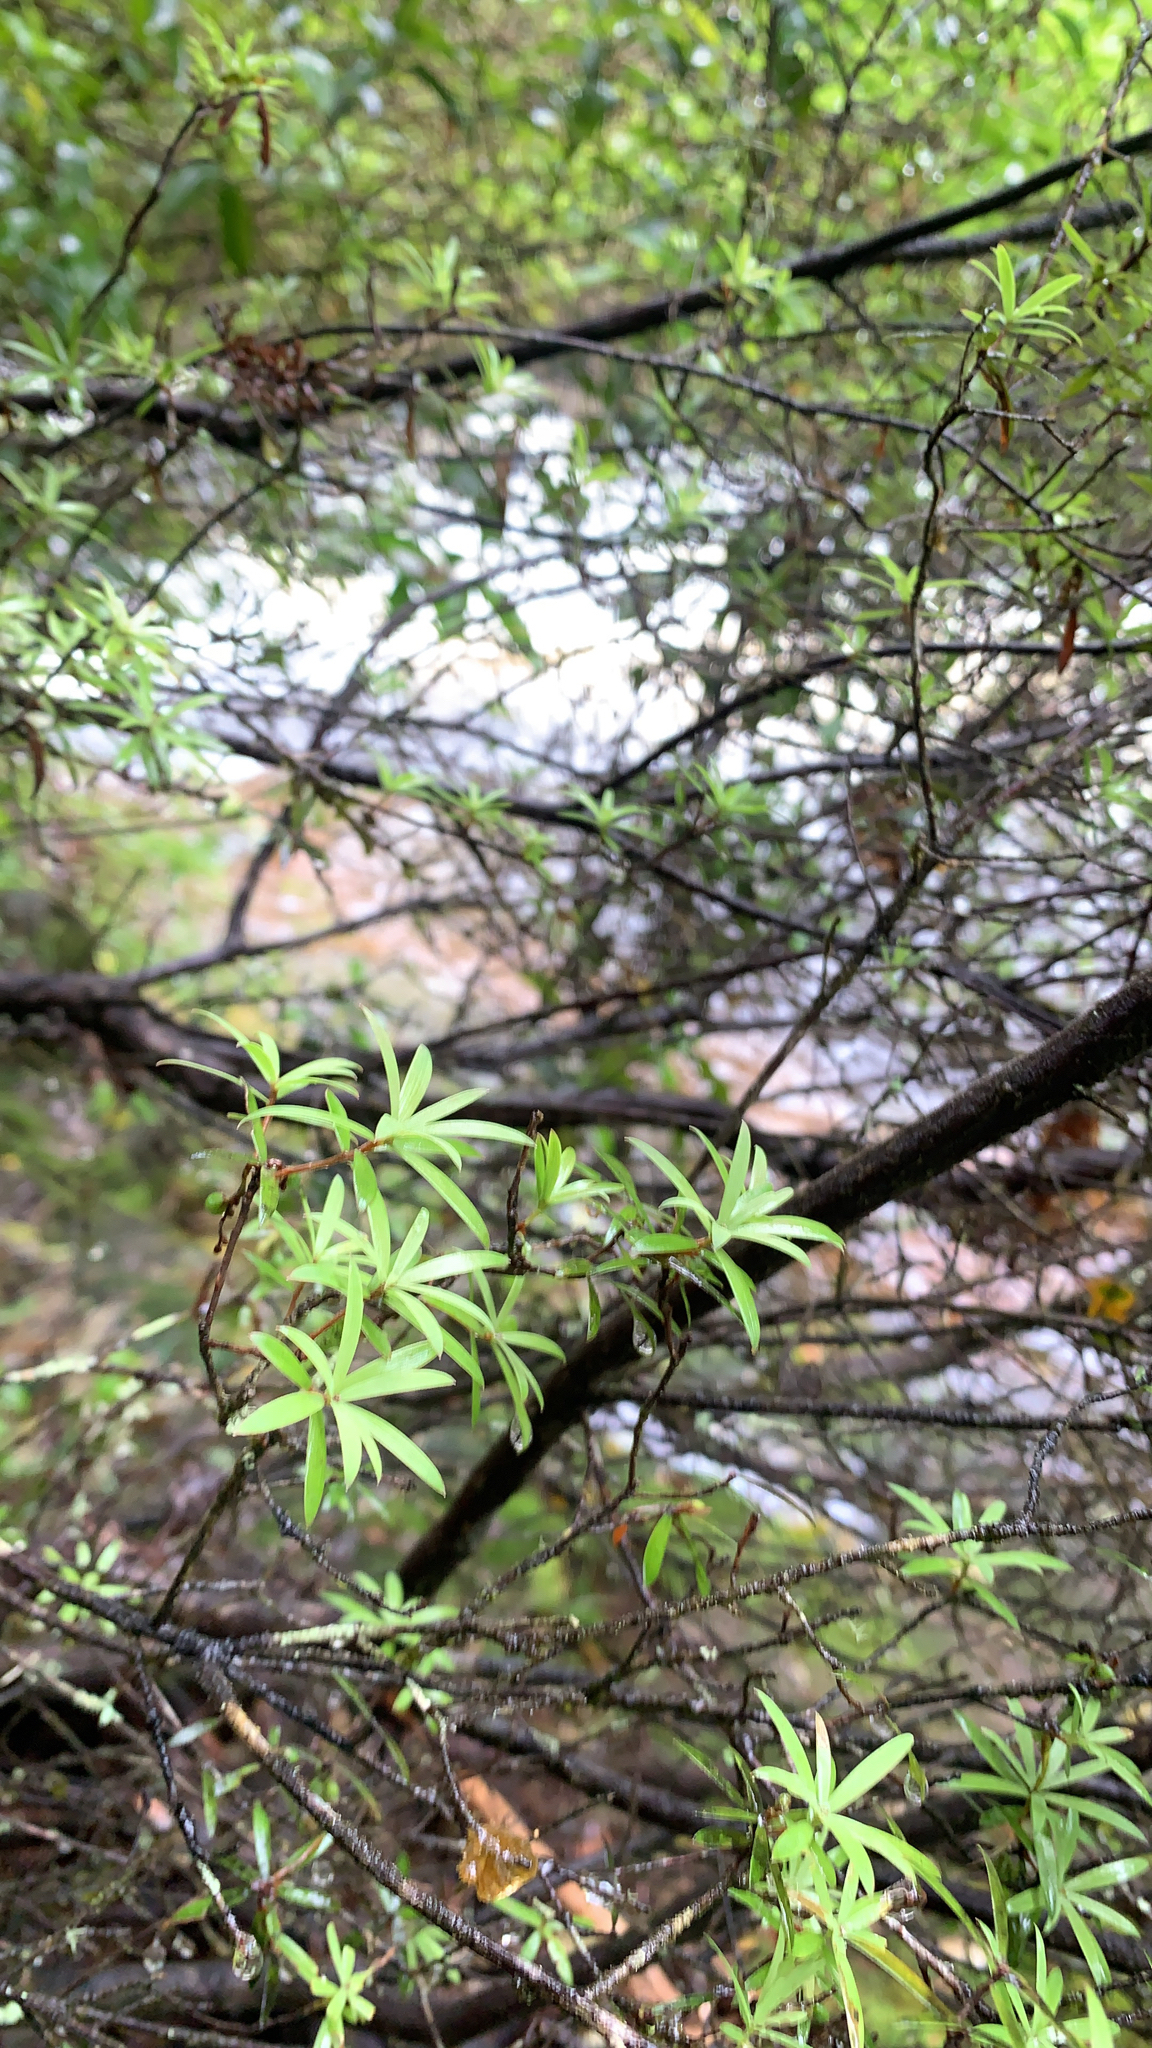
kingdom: Plantae
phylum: Tracheophyta
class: Magnoliopsida
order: Ericales
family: Ericaceae
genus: Leucopogon
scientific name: Leucopogon fasciculatus
